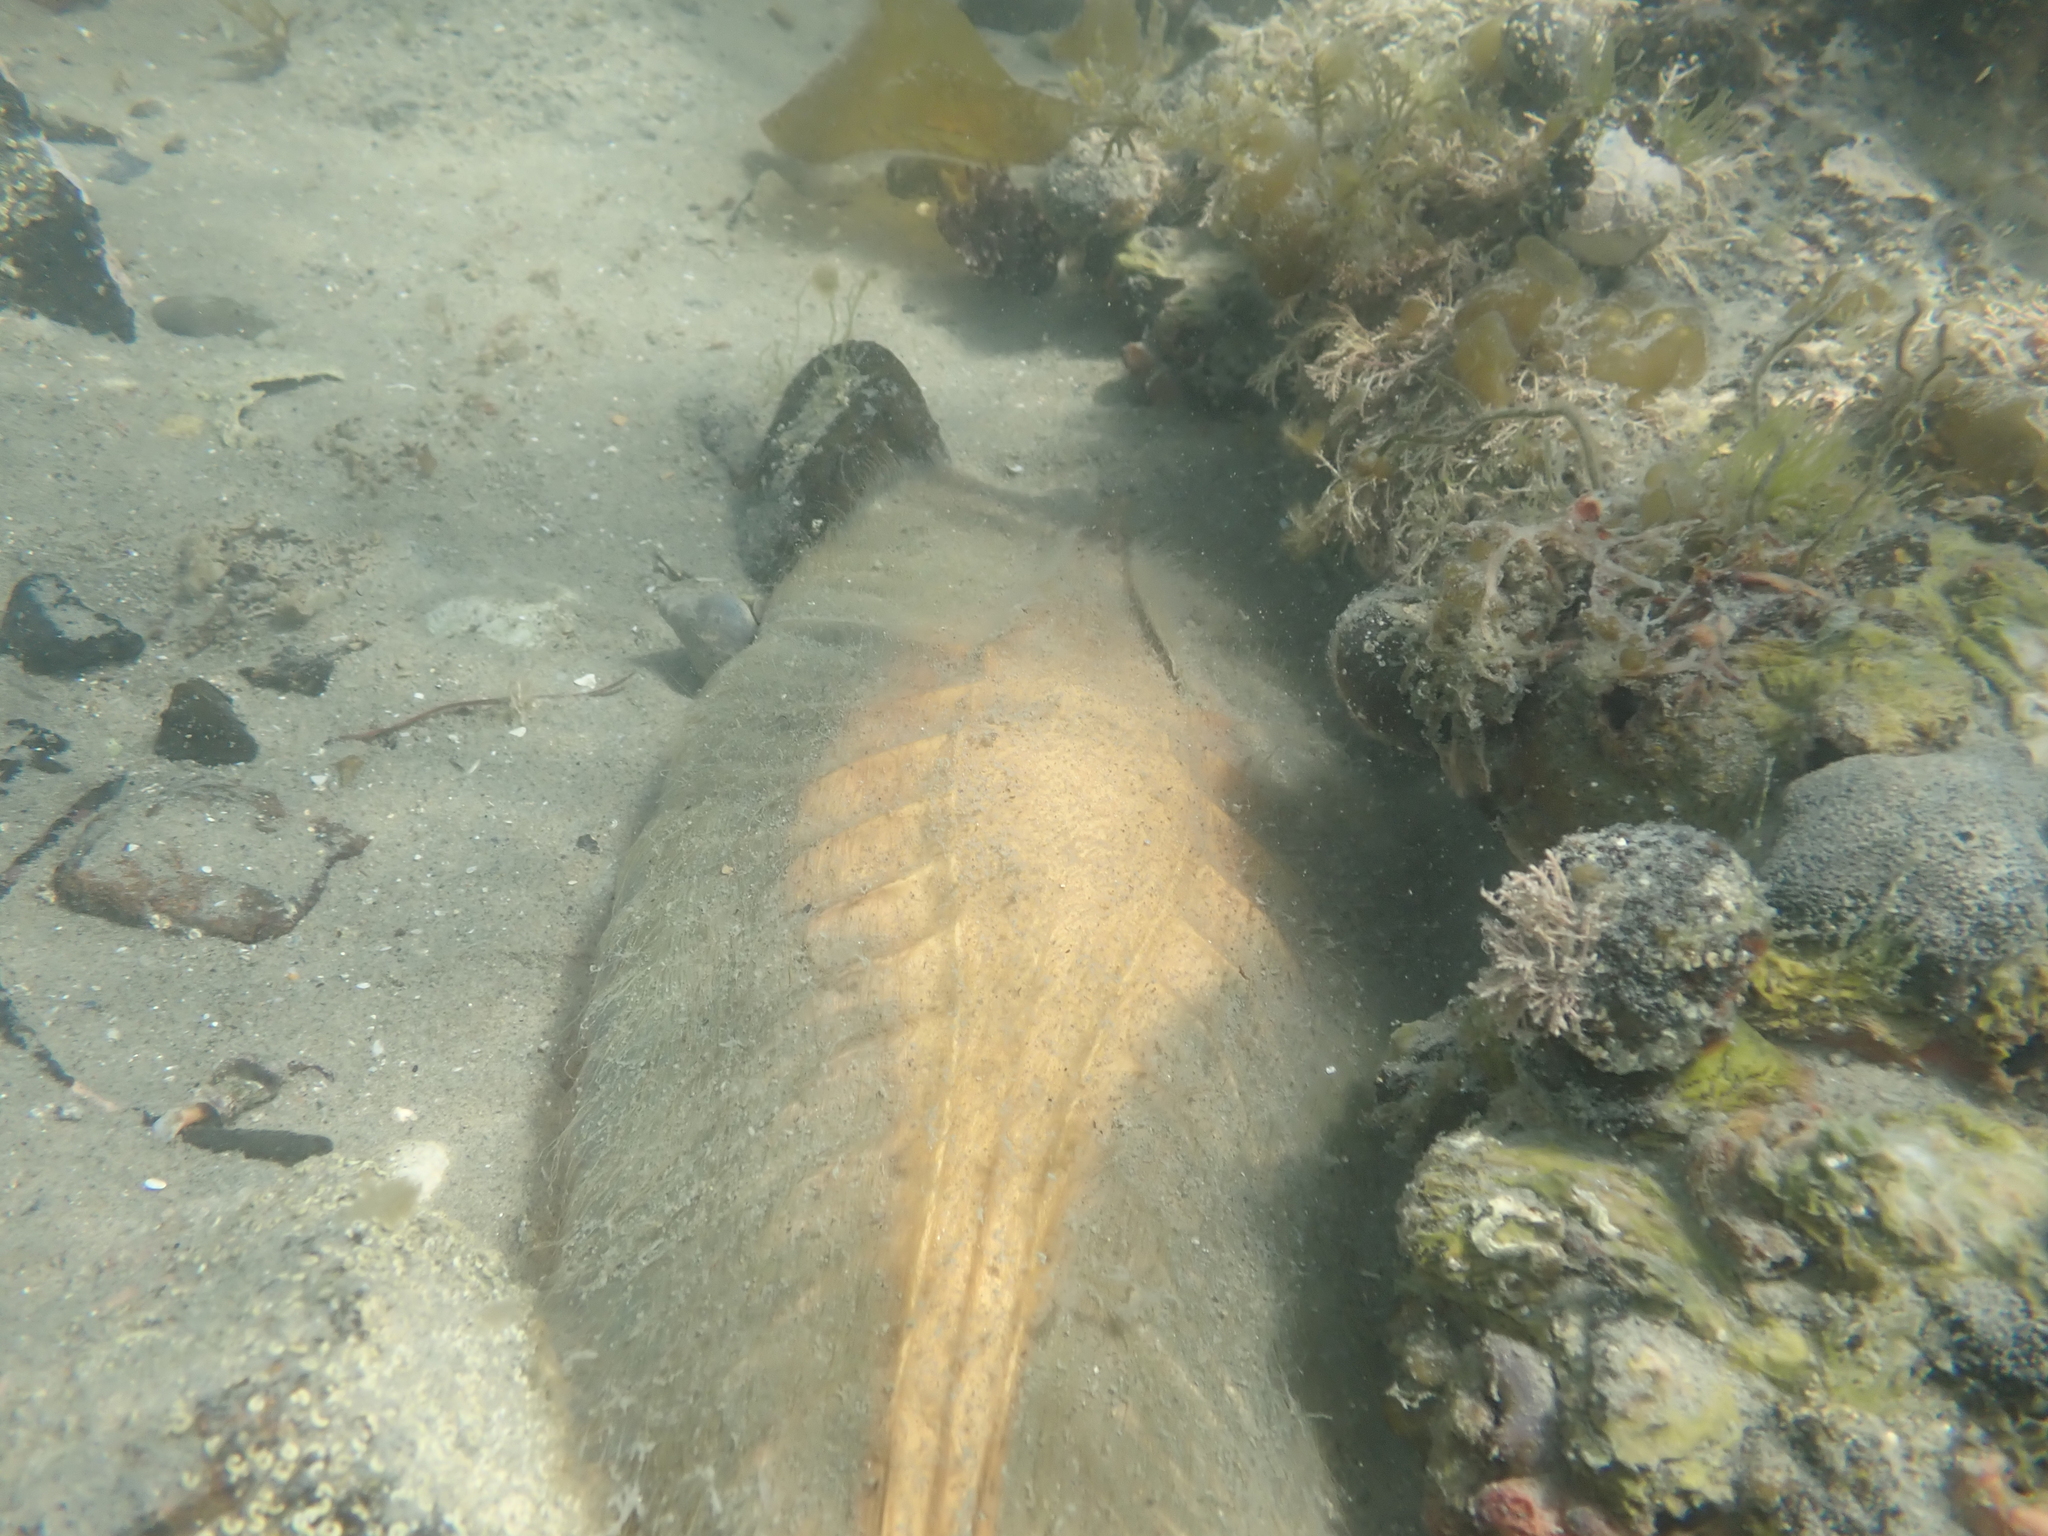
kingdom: Animalia
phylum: Chordata
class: Holocephali
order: Chimaeriformes
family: Callorhinchidae
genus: Callorhinchus
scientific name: Callorhinchus milii
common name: Elephant fish
